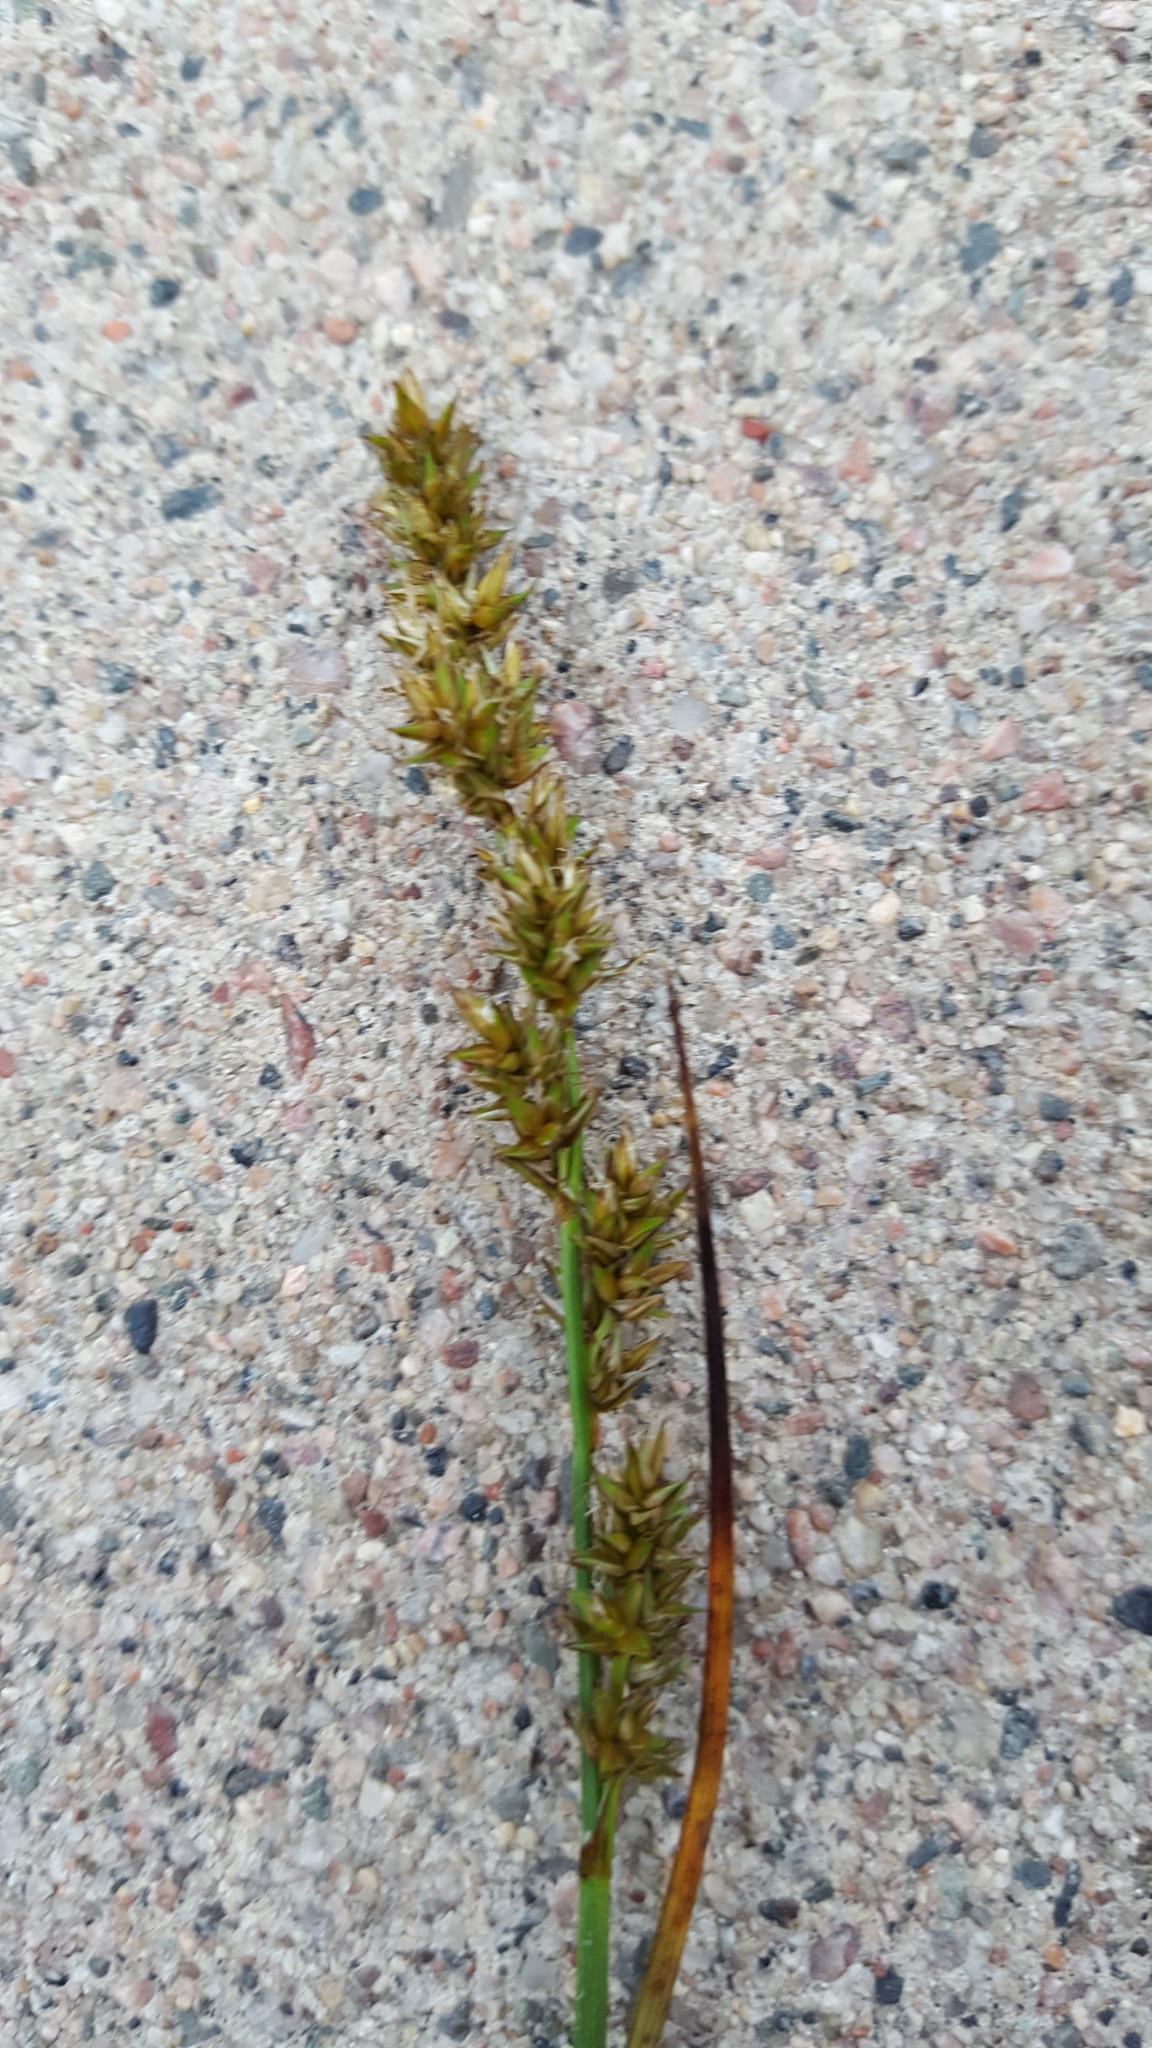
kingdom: Plantae
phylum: Tracheophyta
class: Liliopsida
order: Poales
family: Cyperaceae
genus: Carex
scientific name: Carex diandra
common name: Lesser tussock-sedge
